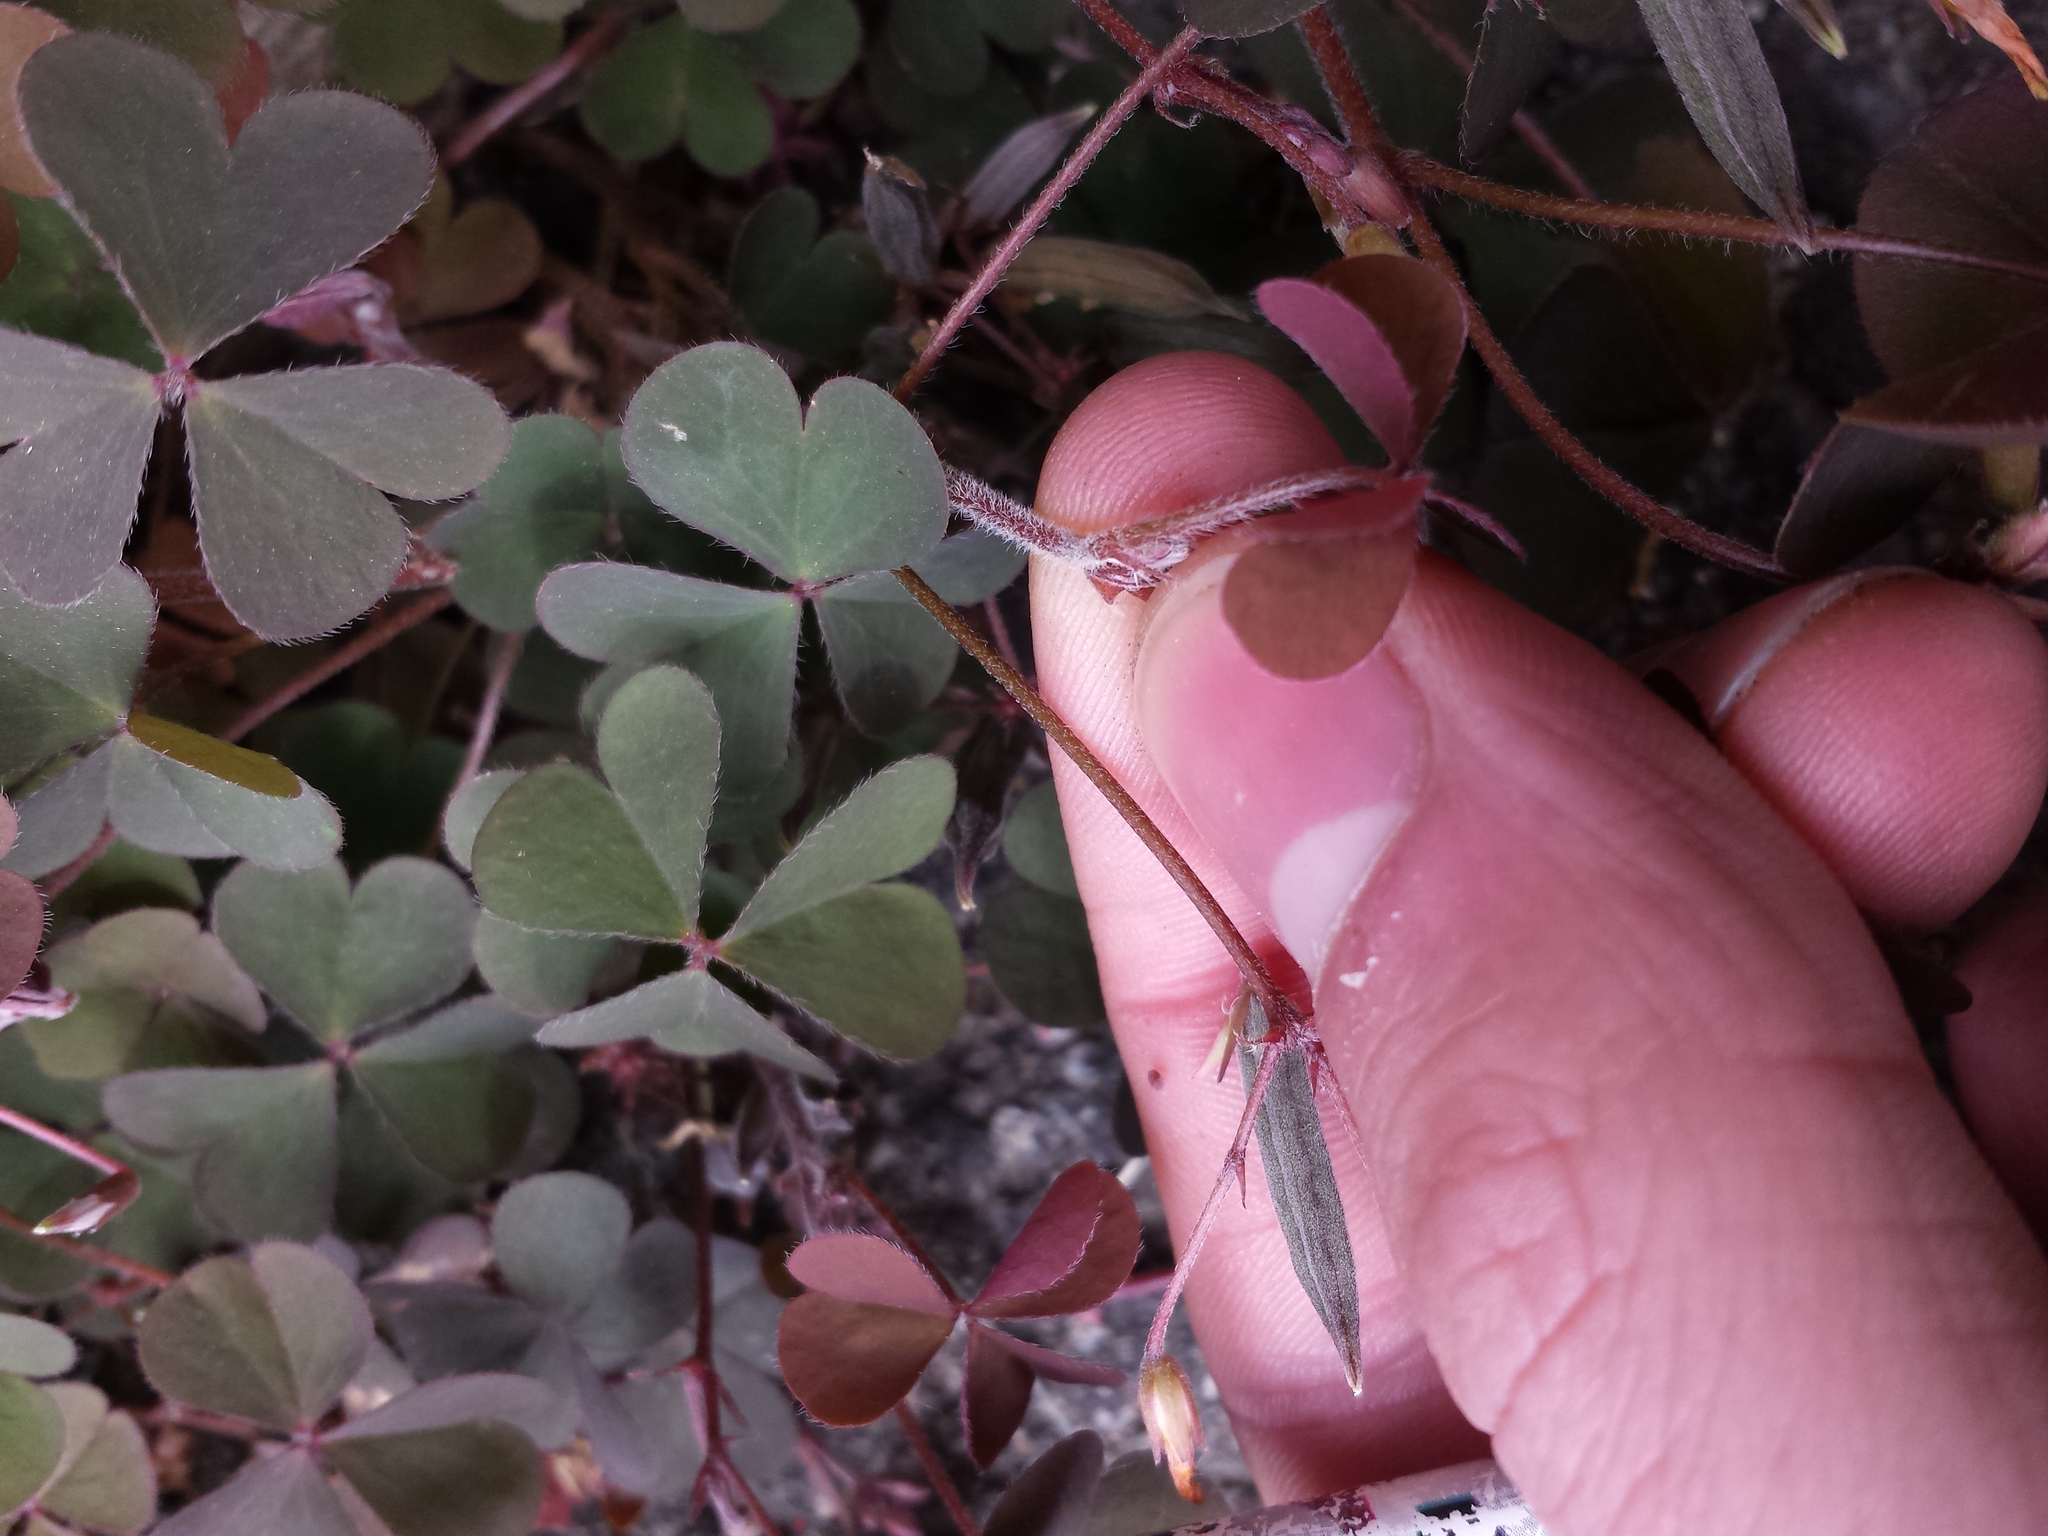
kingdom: Plantae
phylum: Tracheophyta
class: Magnoliopsida
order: Oxalidales
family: Oxalidaceae
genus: Oxalis
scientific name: Oxalis corniculata
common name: Procumbent yellow-sorrel
